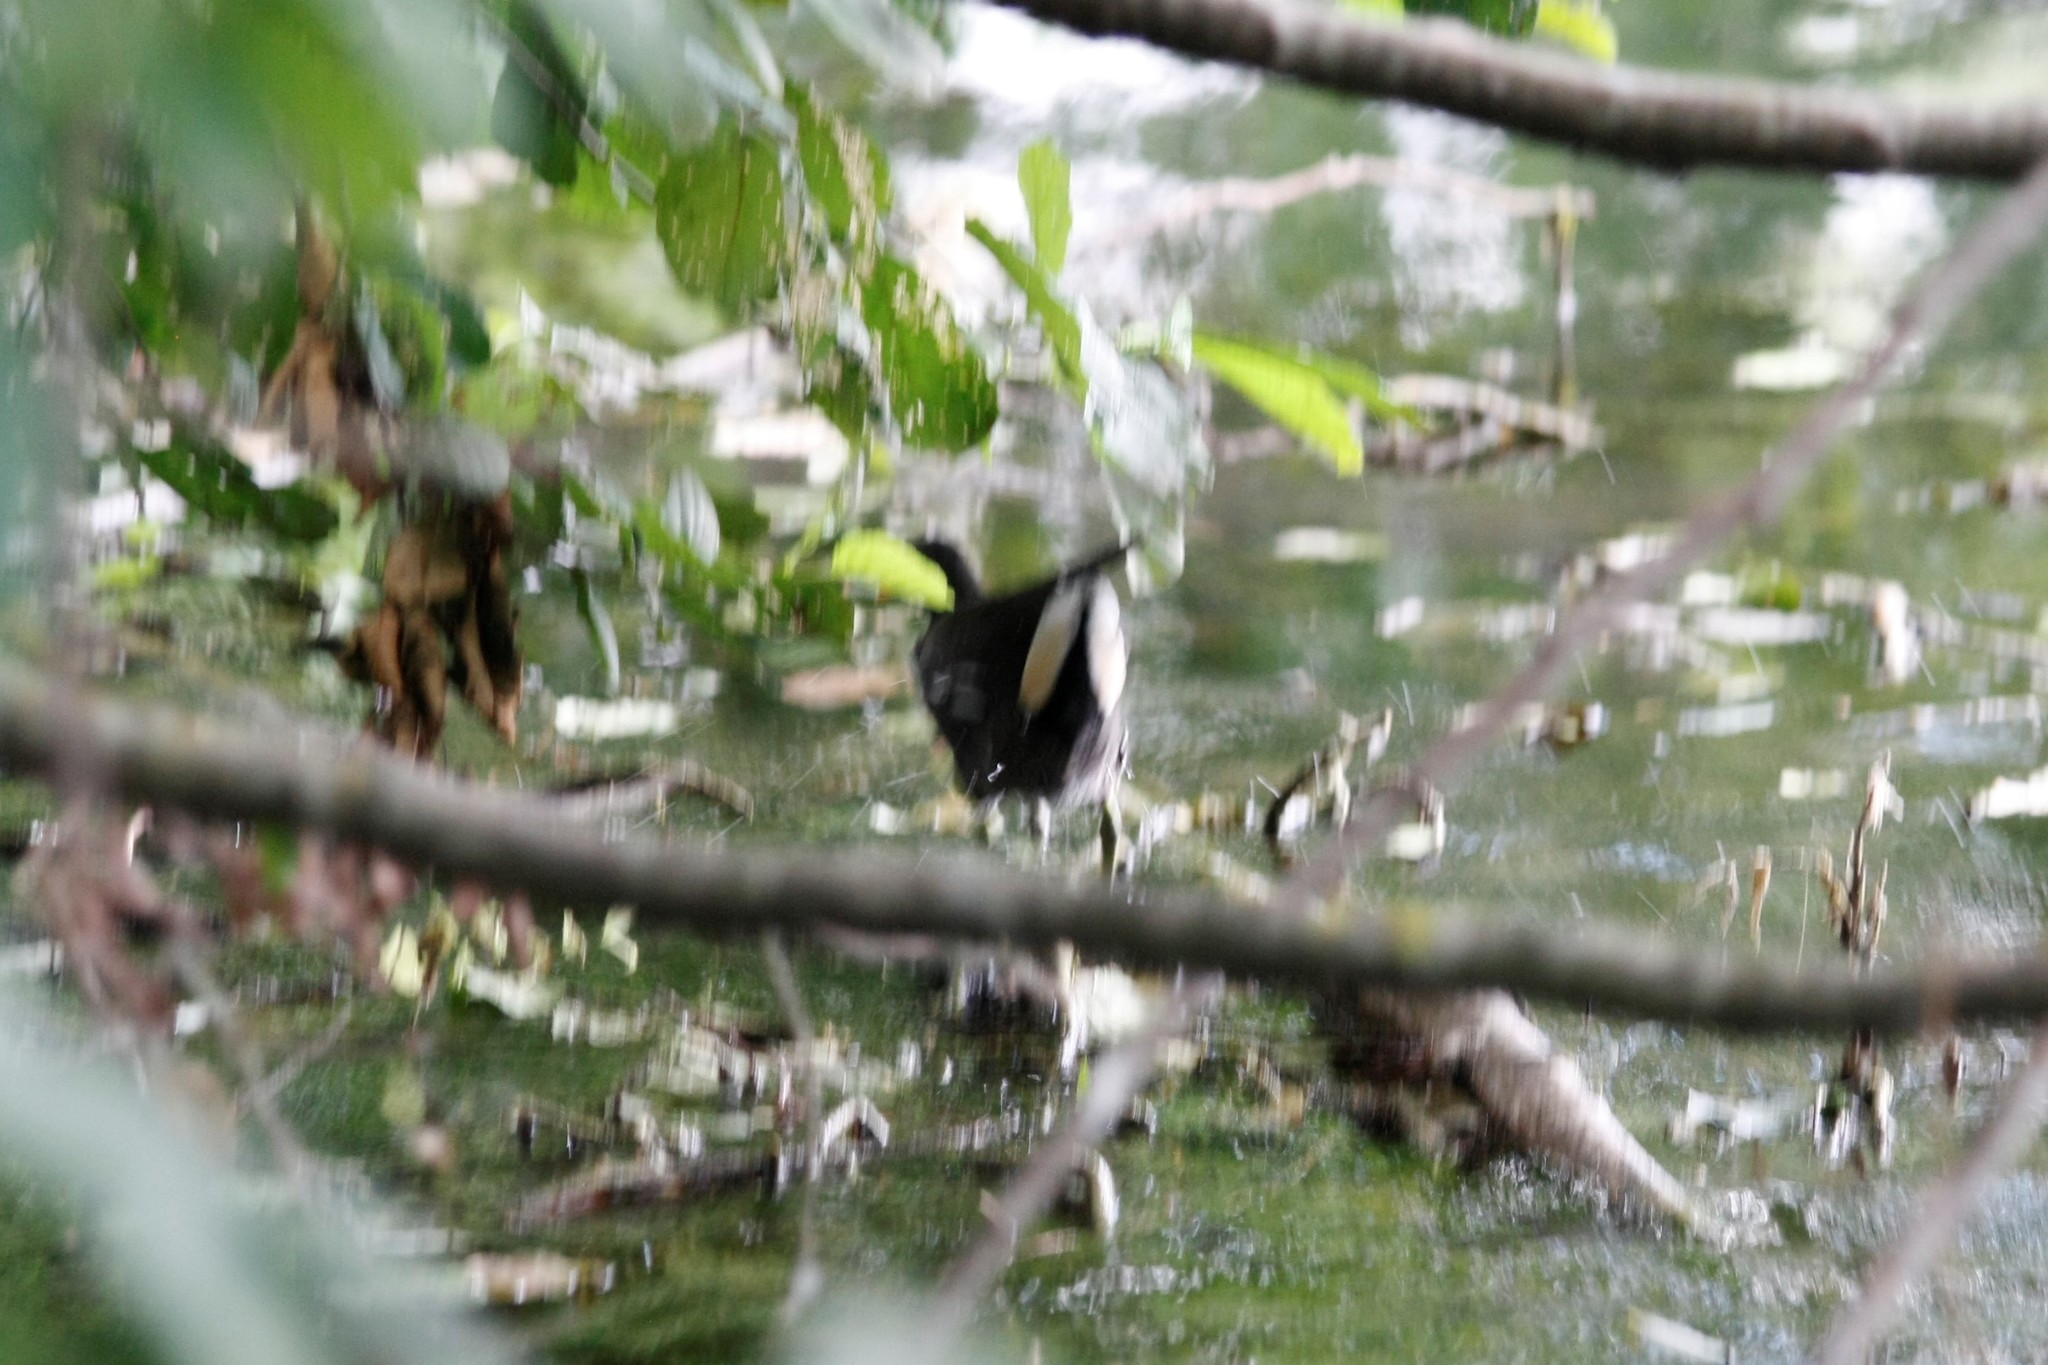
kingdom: Animalia
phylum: Chordata
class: Aves
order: Gruiformes
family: Rallidae
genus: Gallinula
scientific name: Gallinula chloropus
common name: Common moorhen
